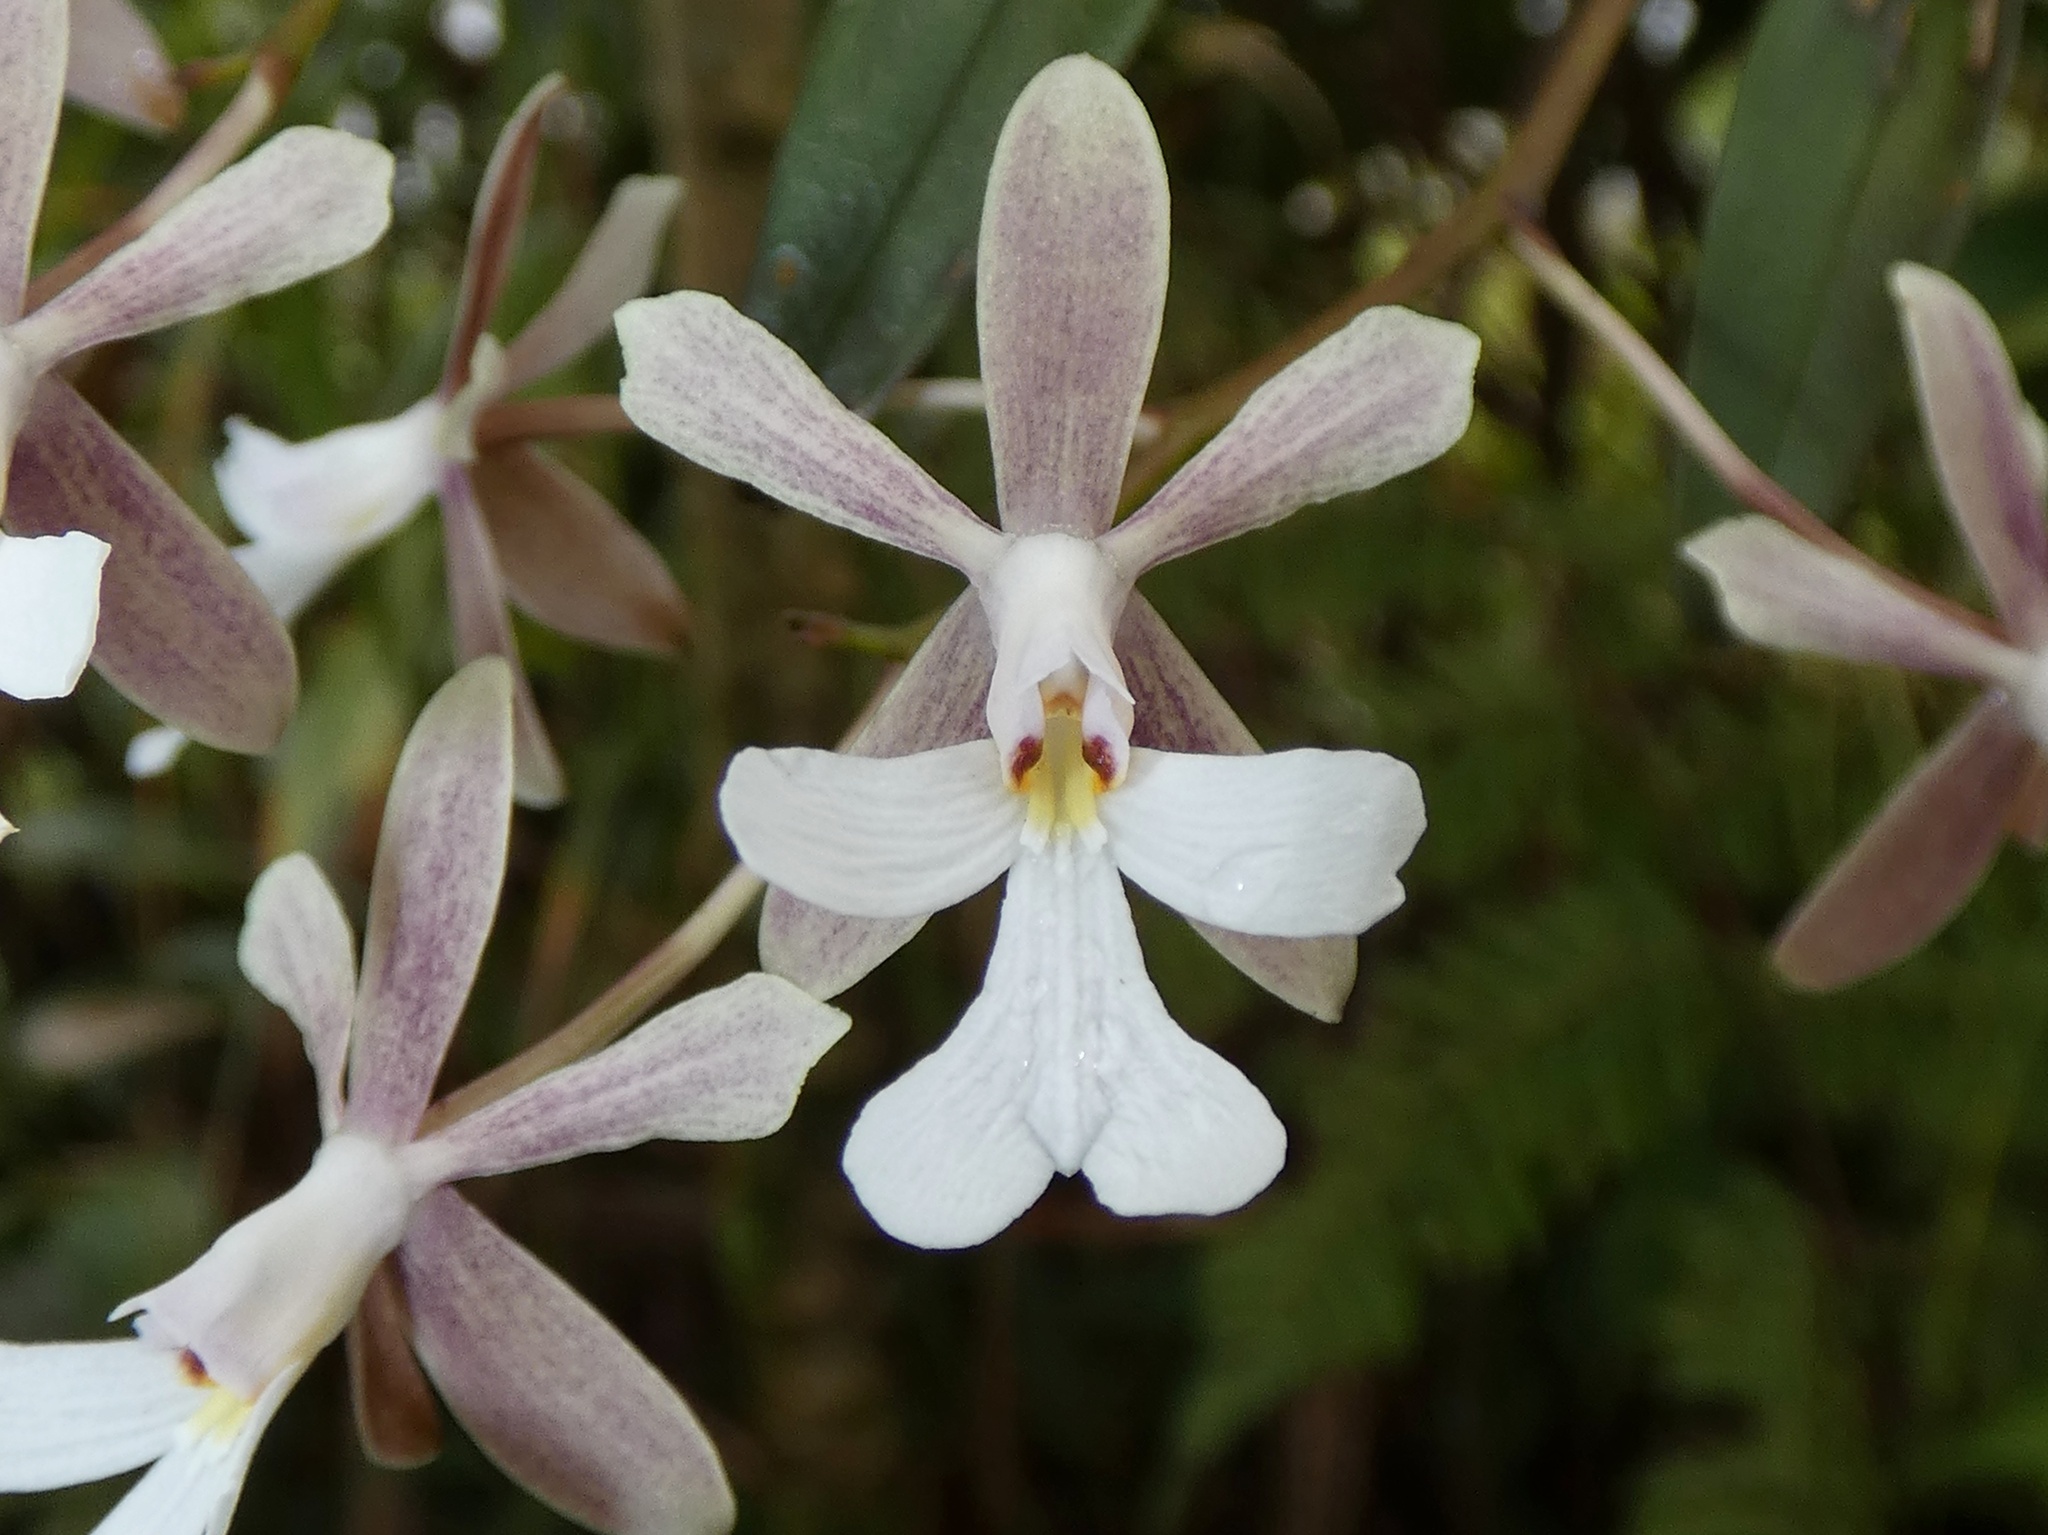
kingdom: Plantae
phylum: Tracheophyta
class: Liliopsida
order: Asparagales
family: Orchidaceae
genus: Epidendrum
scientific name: Epidendrum pajitense
